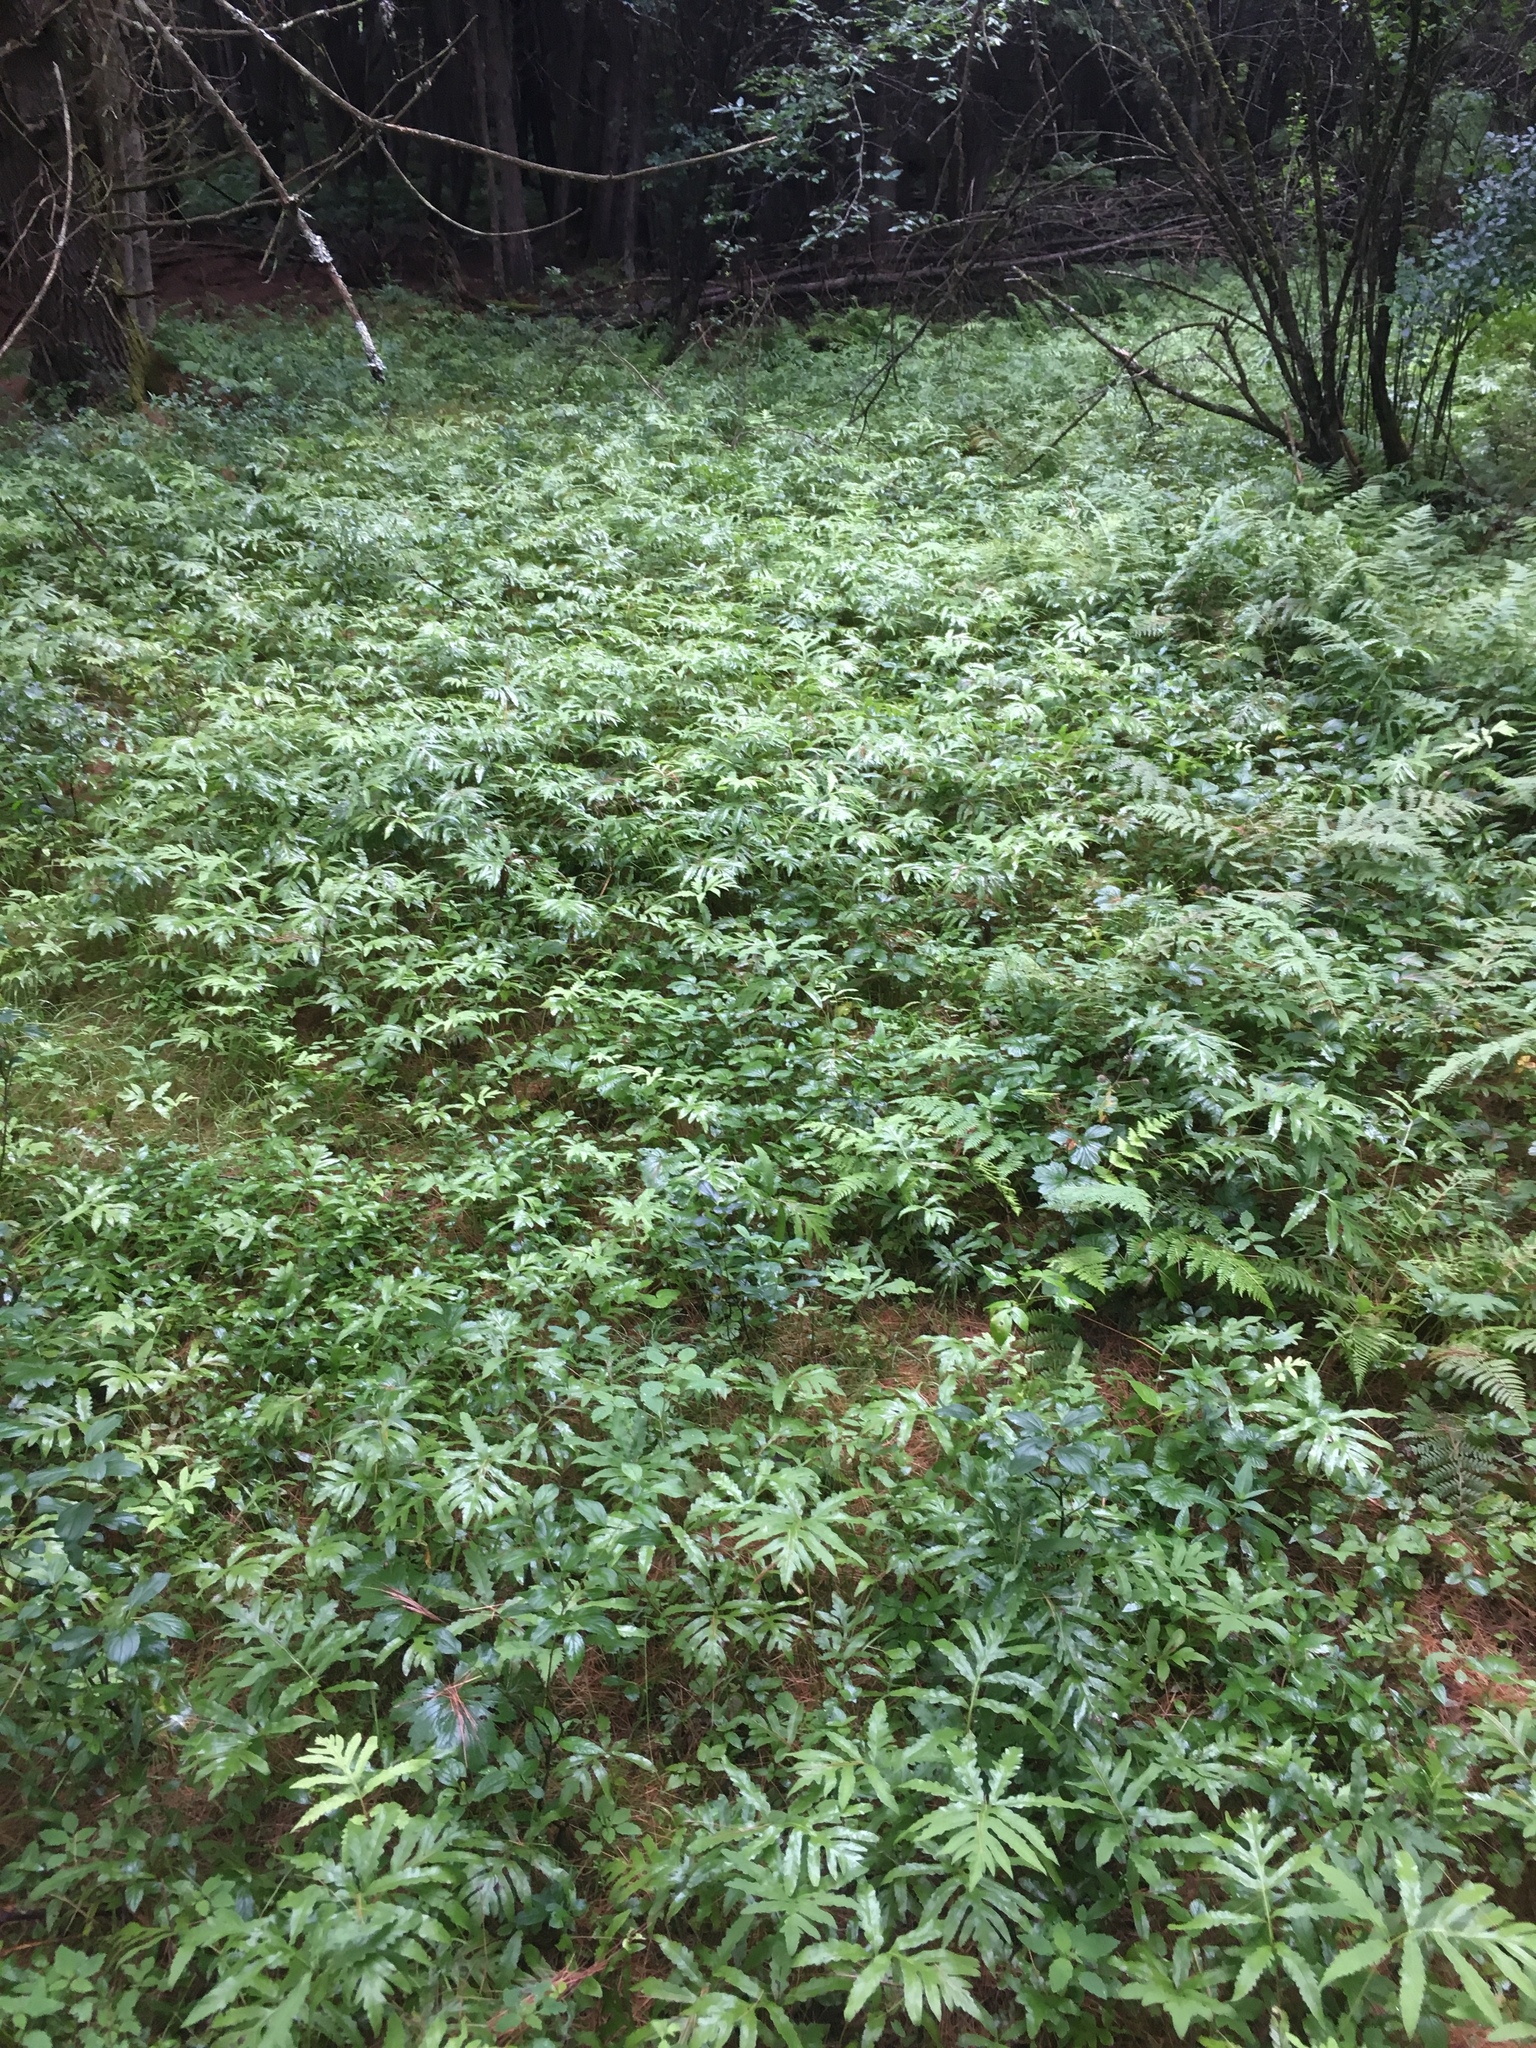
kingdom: Plantae
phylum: Tracheophyta
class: Polypodiopsida
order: Polypodiales
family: Onocleaceae
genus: Onoclea
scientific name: Onoclea sensibilis
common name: Sensitive fern
